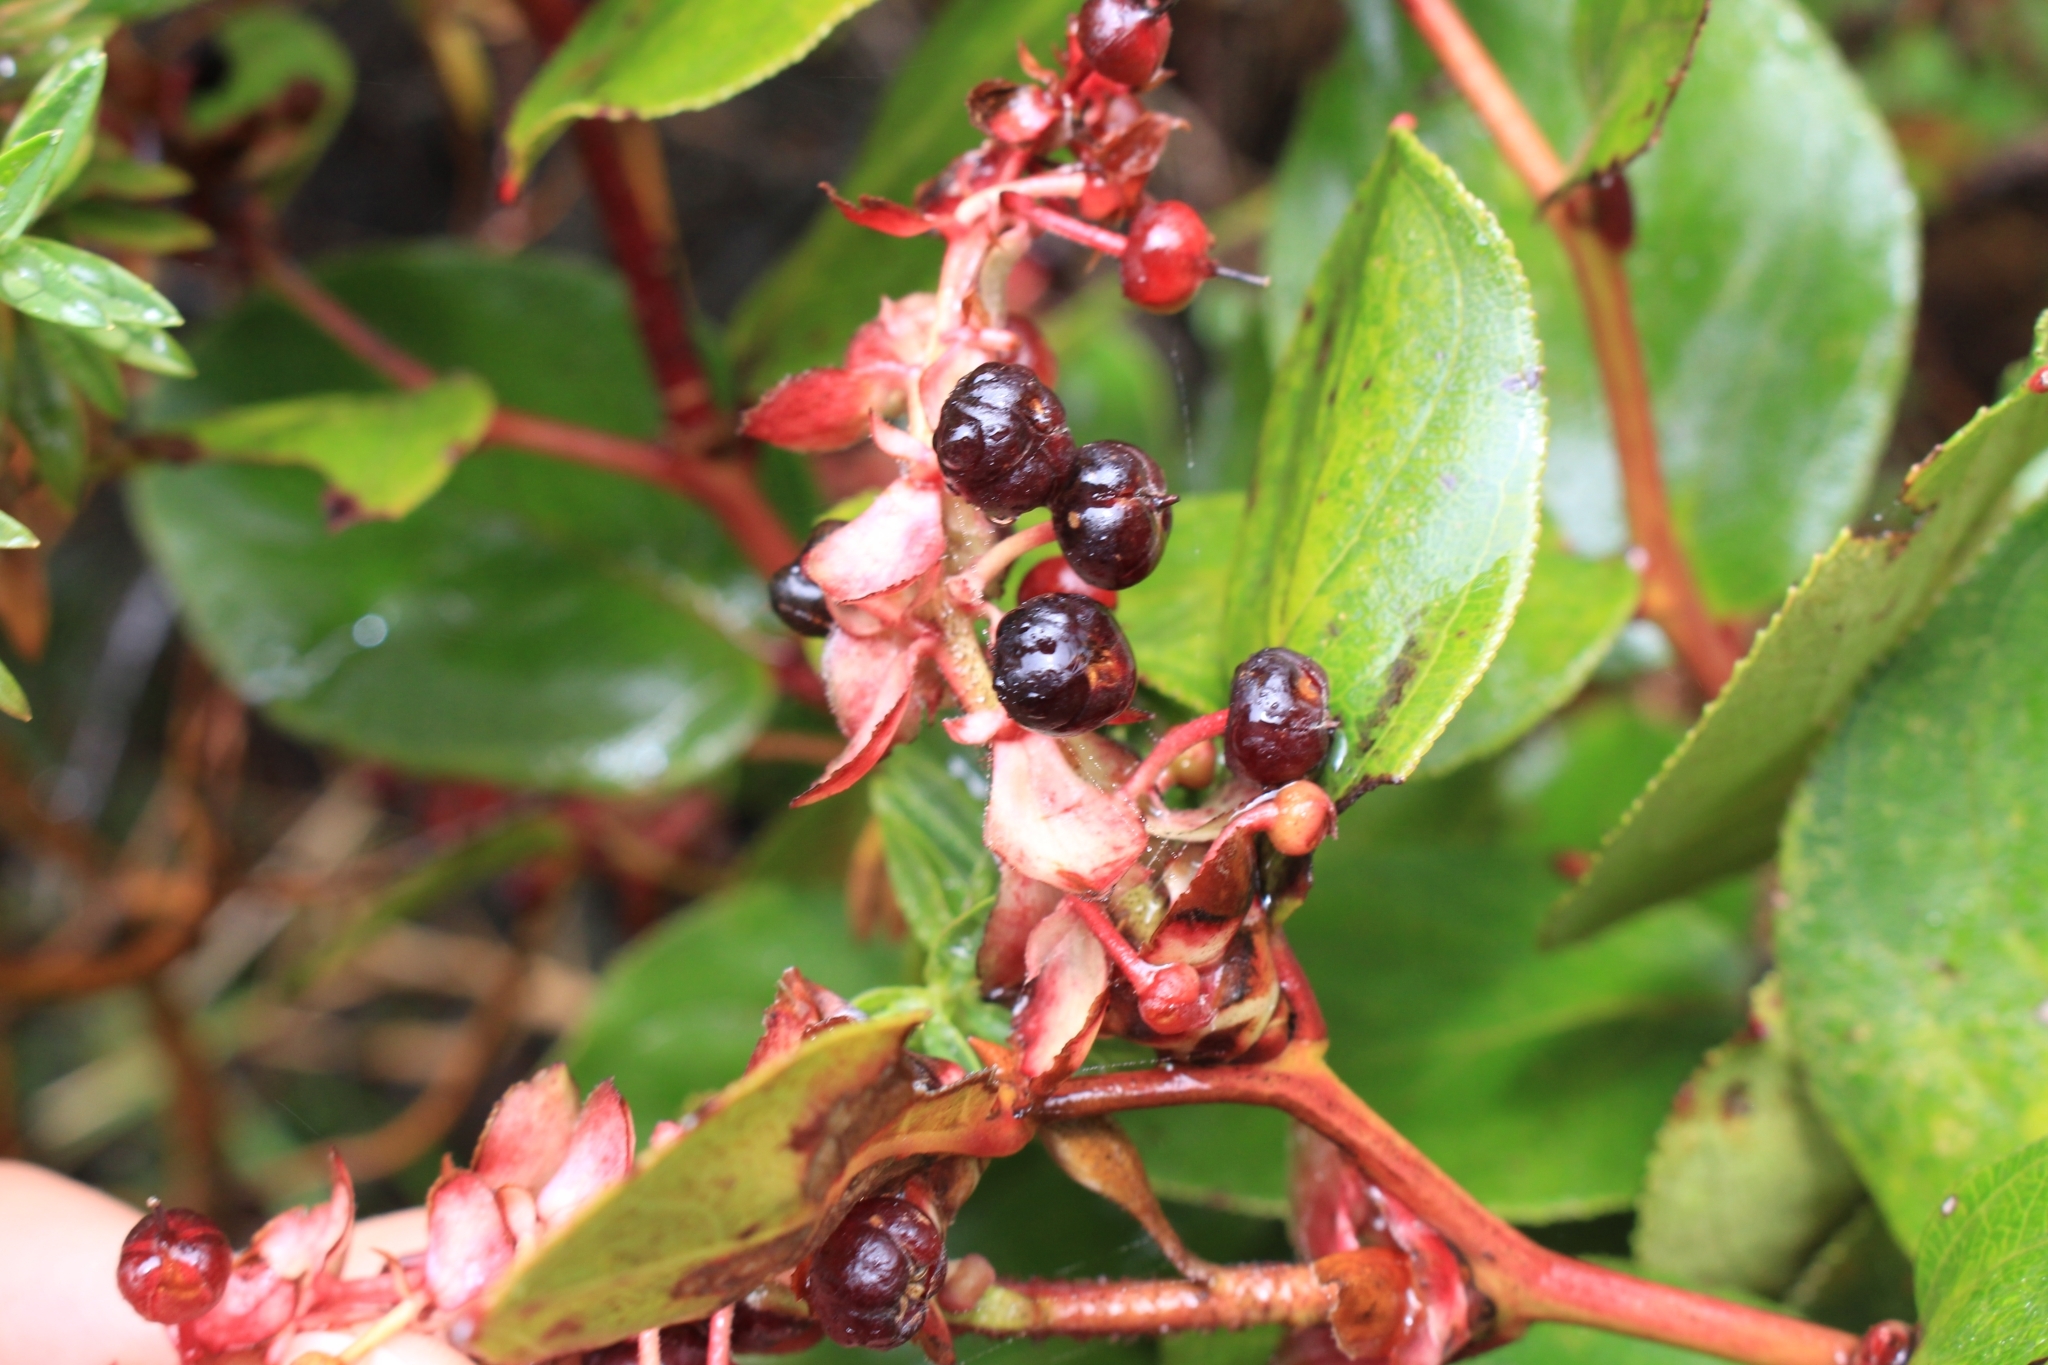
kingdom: Plantae
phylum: Tracheophyta
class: Magnoliopsida
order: Ericales
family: Ericaceae
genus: Gaultheria
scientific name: Gaultheria erecta
